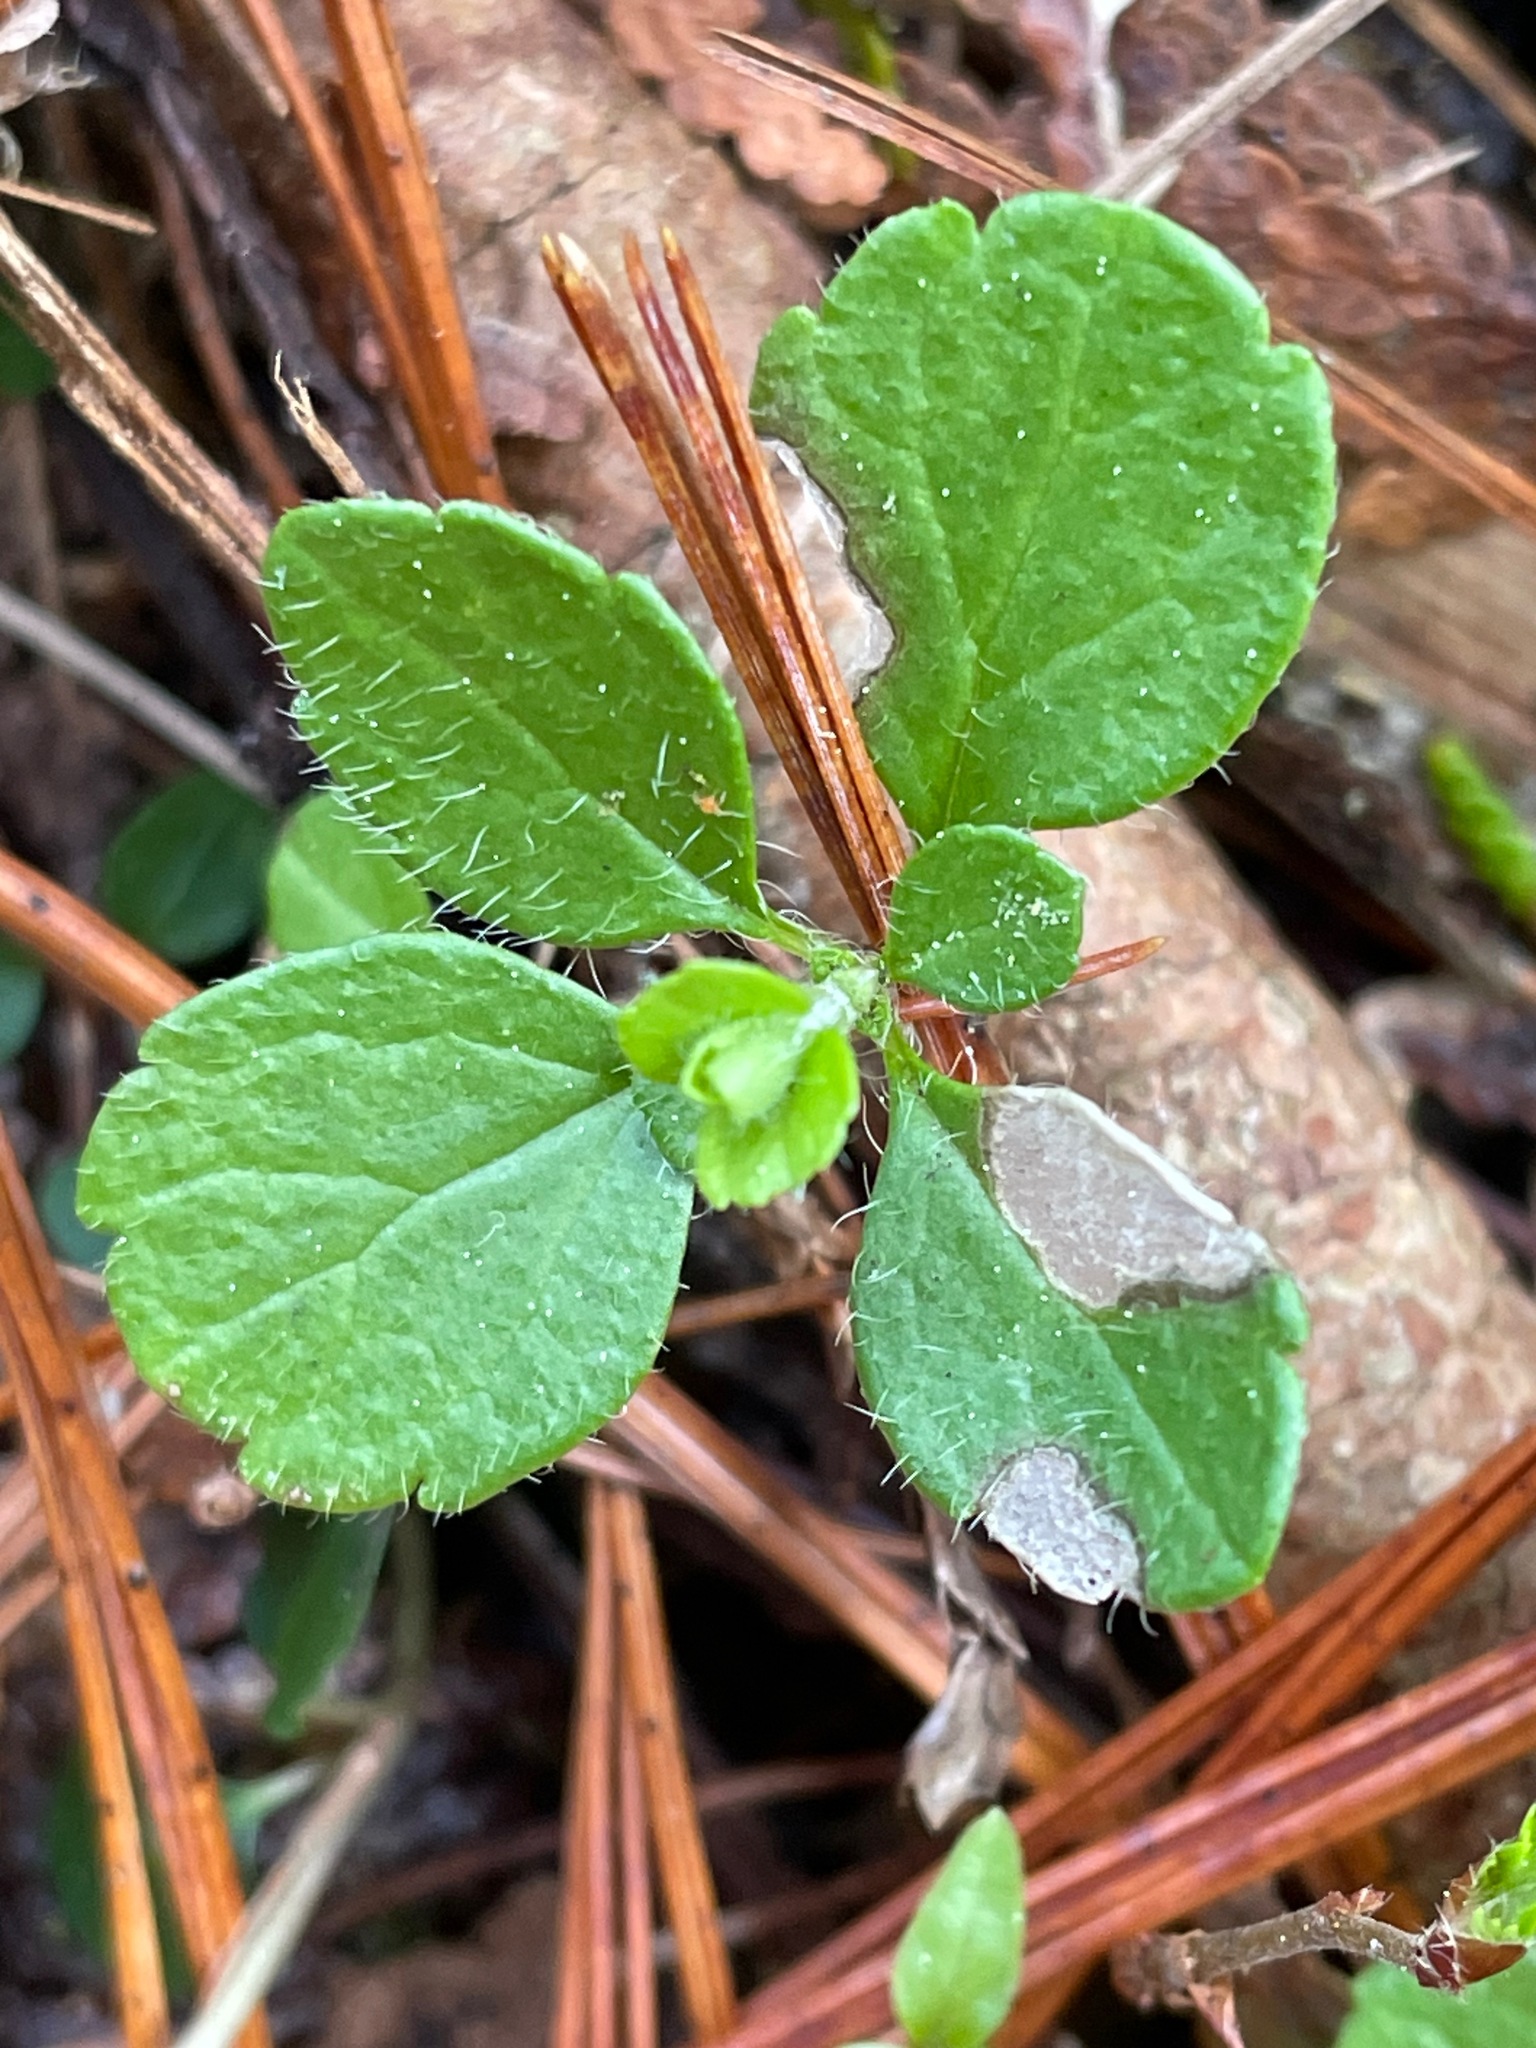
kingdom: Plantae
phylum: Tracheophyta
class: Magnoliopsida
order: Dipsacales
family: Caprifoliaceae
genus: Linnaea
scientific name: Linnaea borealis
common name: Twinflower
